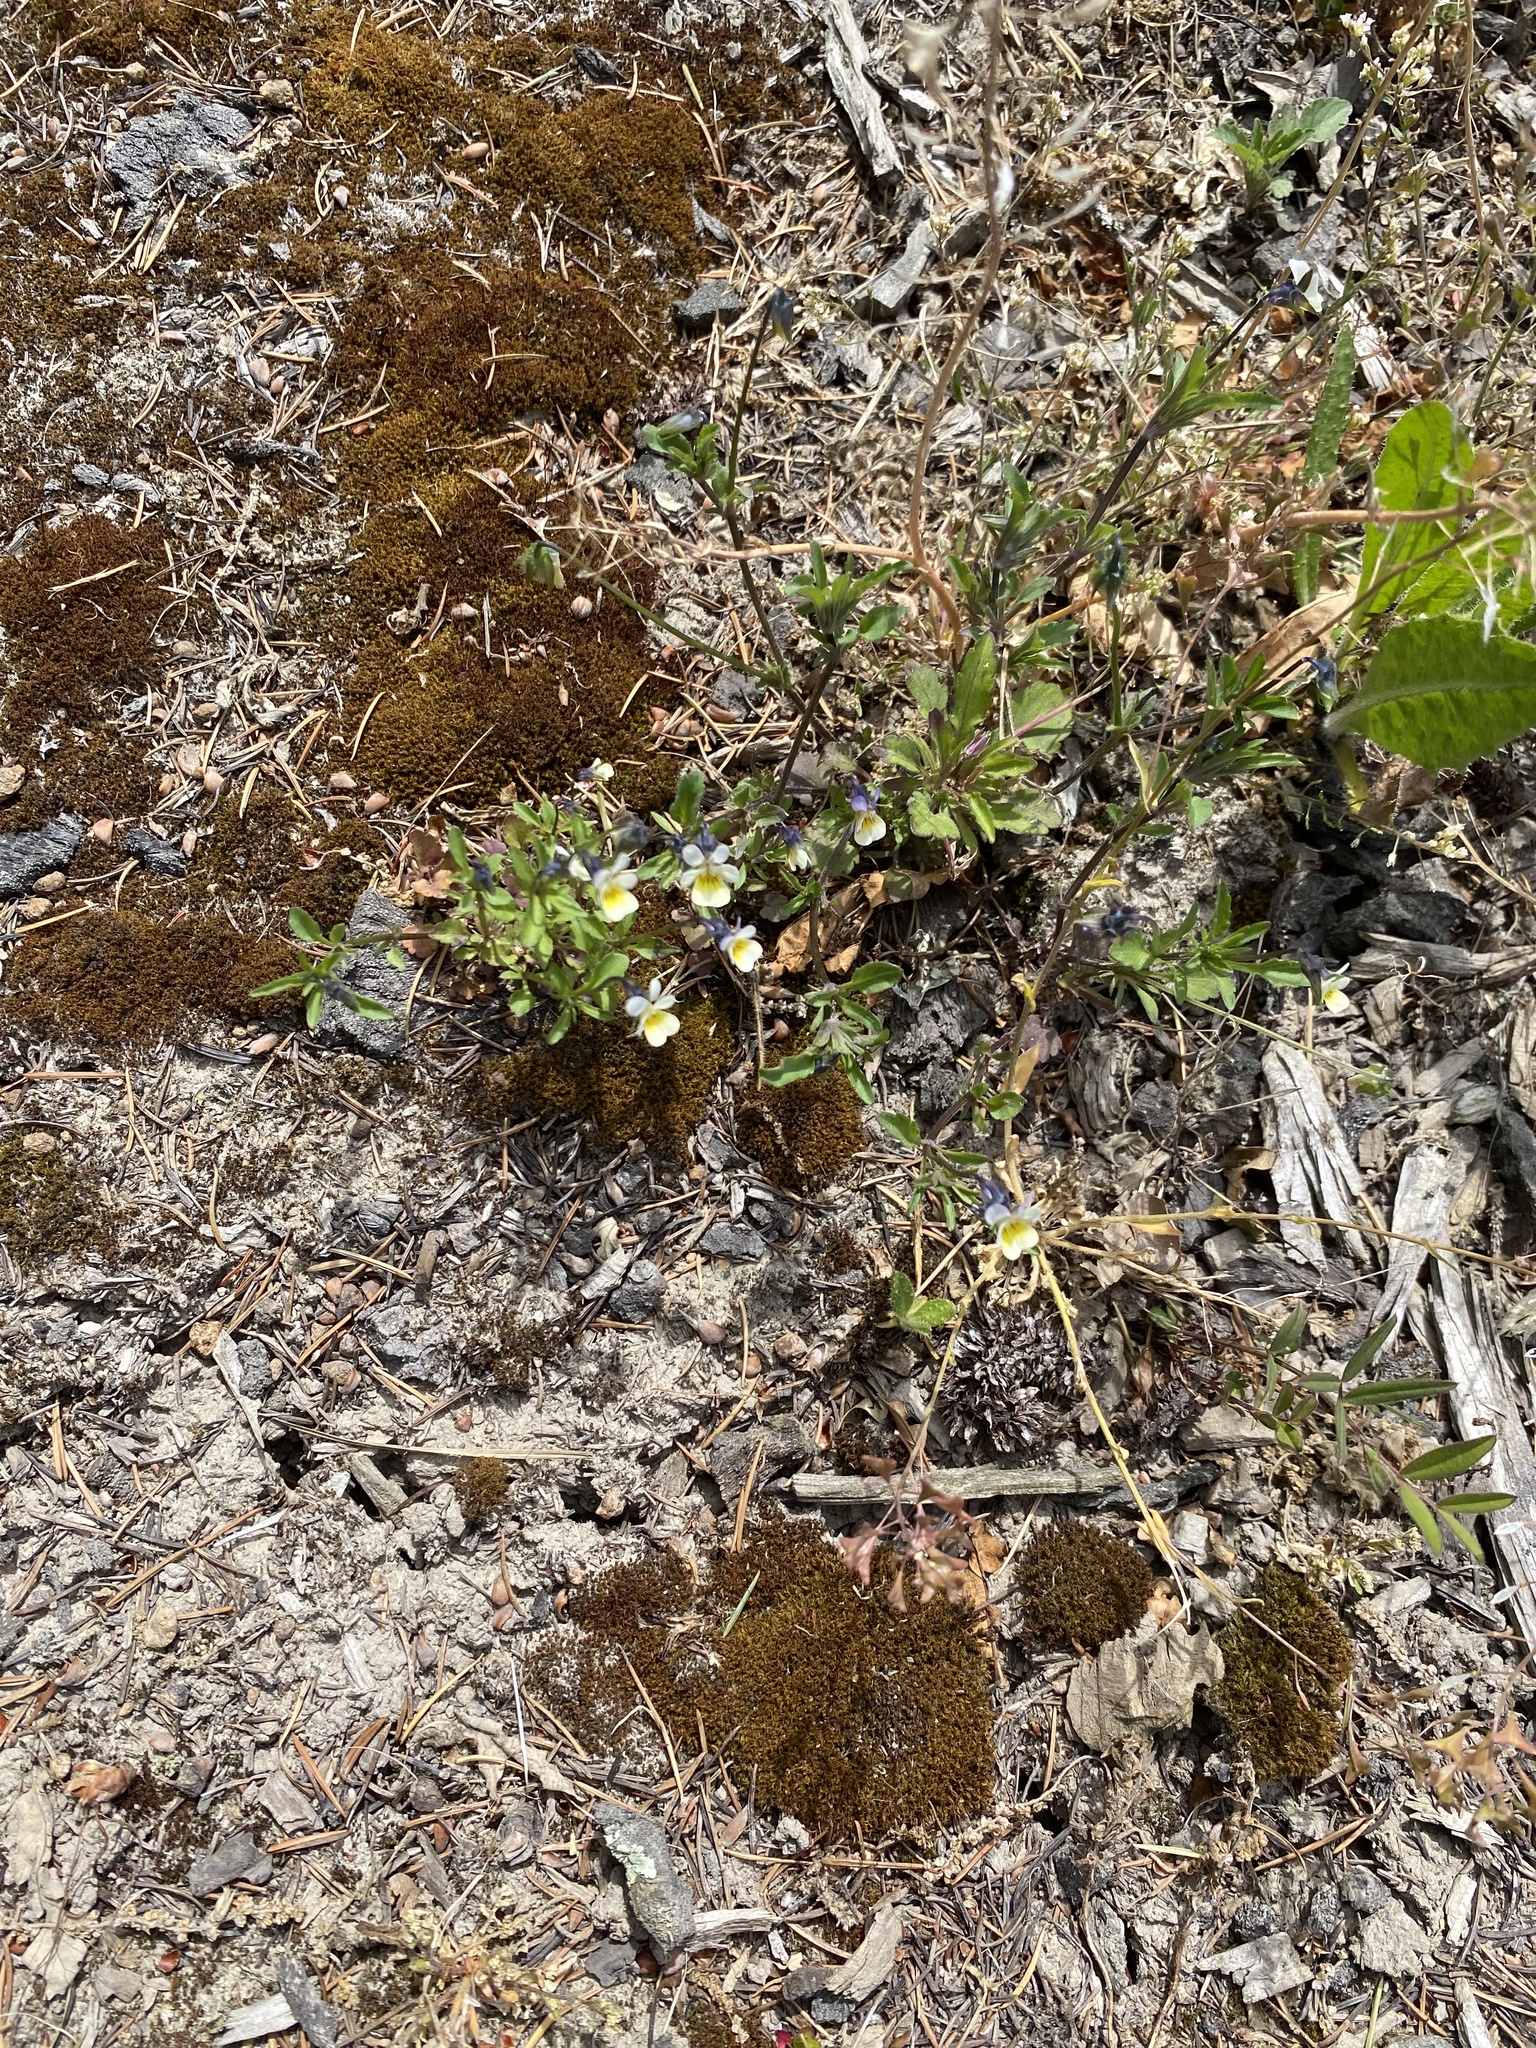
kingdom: Plantae
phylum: Tracheophyta
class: Magnoliopsida
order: Malpighiales
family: Violaceae
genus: Viola
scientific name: Viola arvensis
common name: Field pansy
